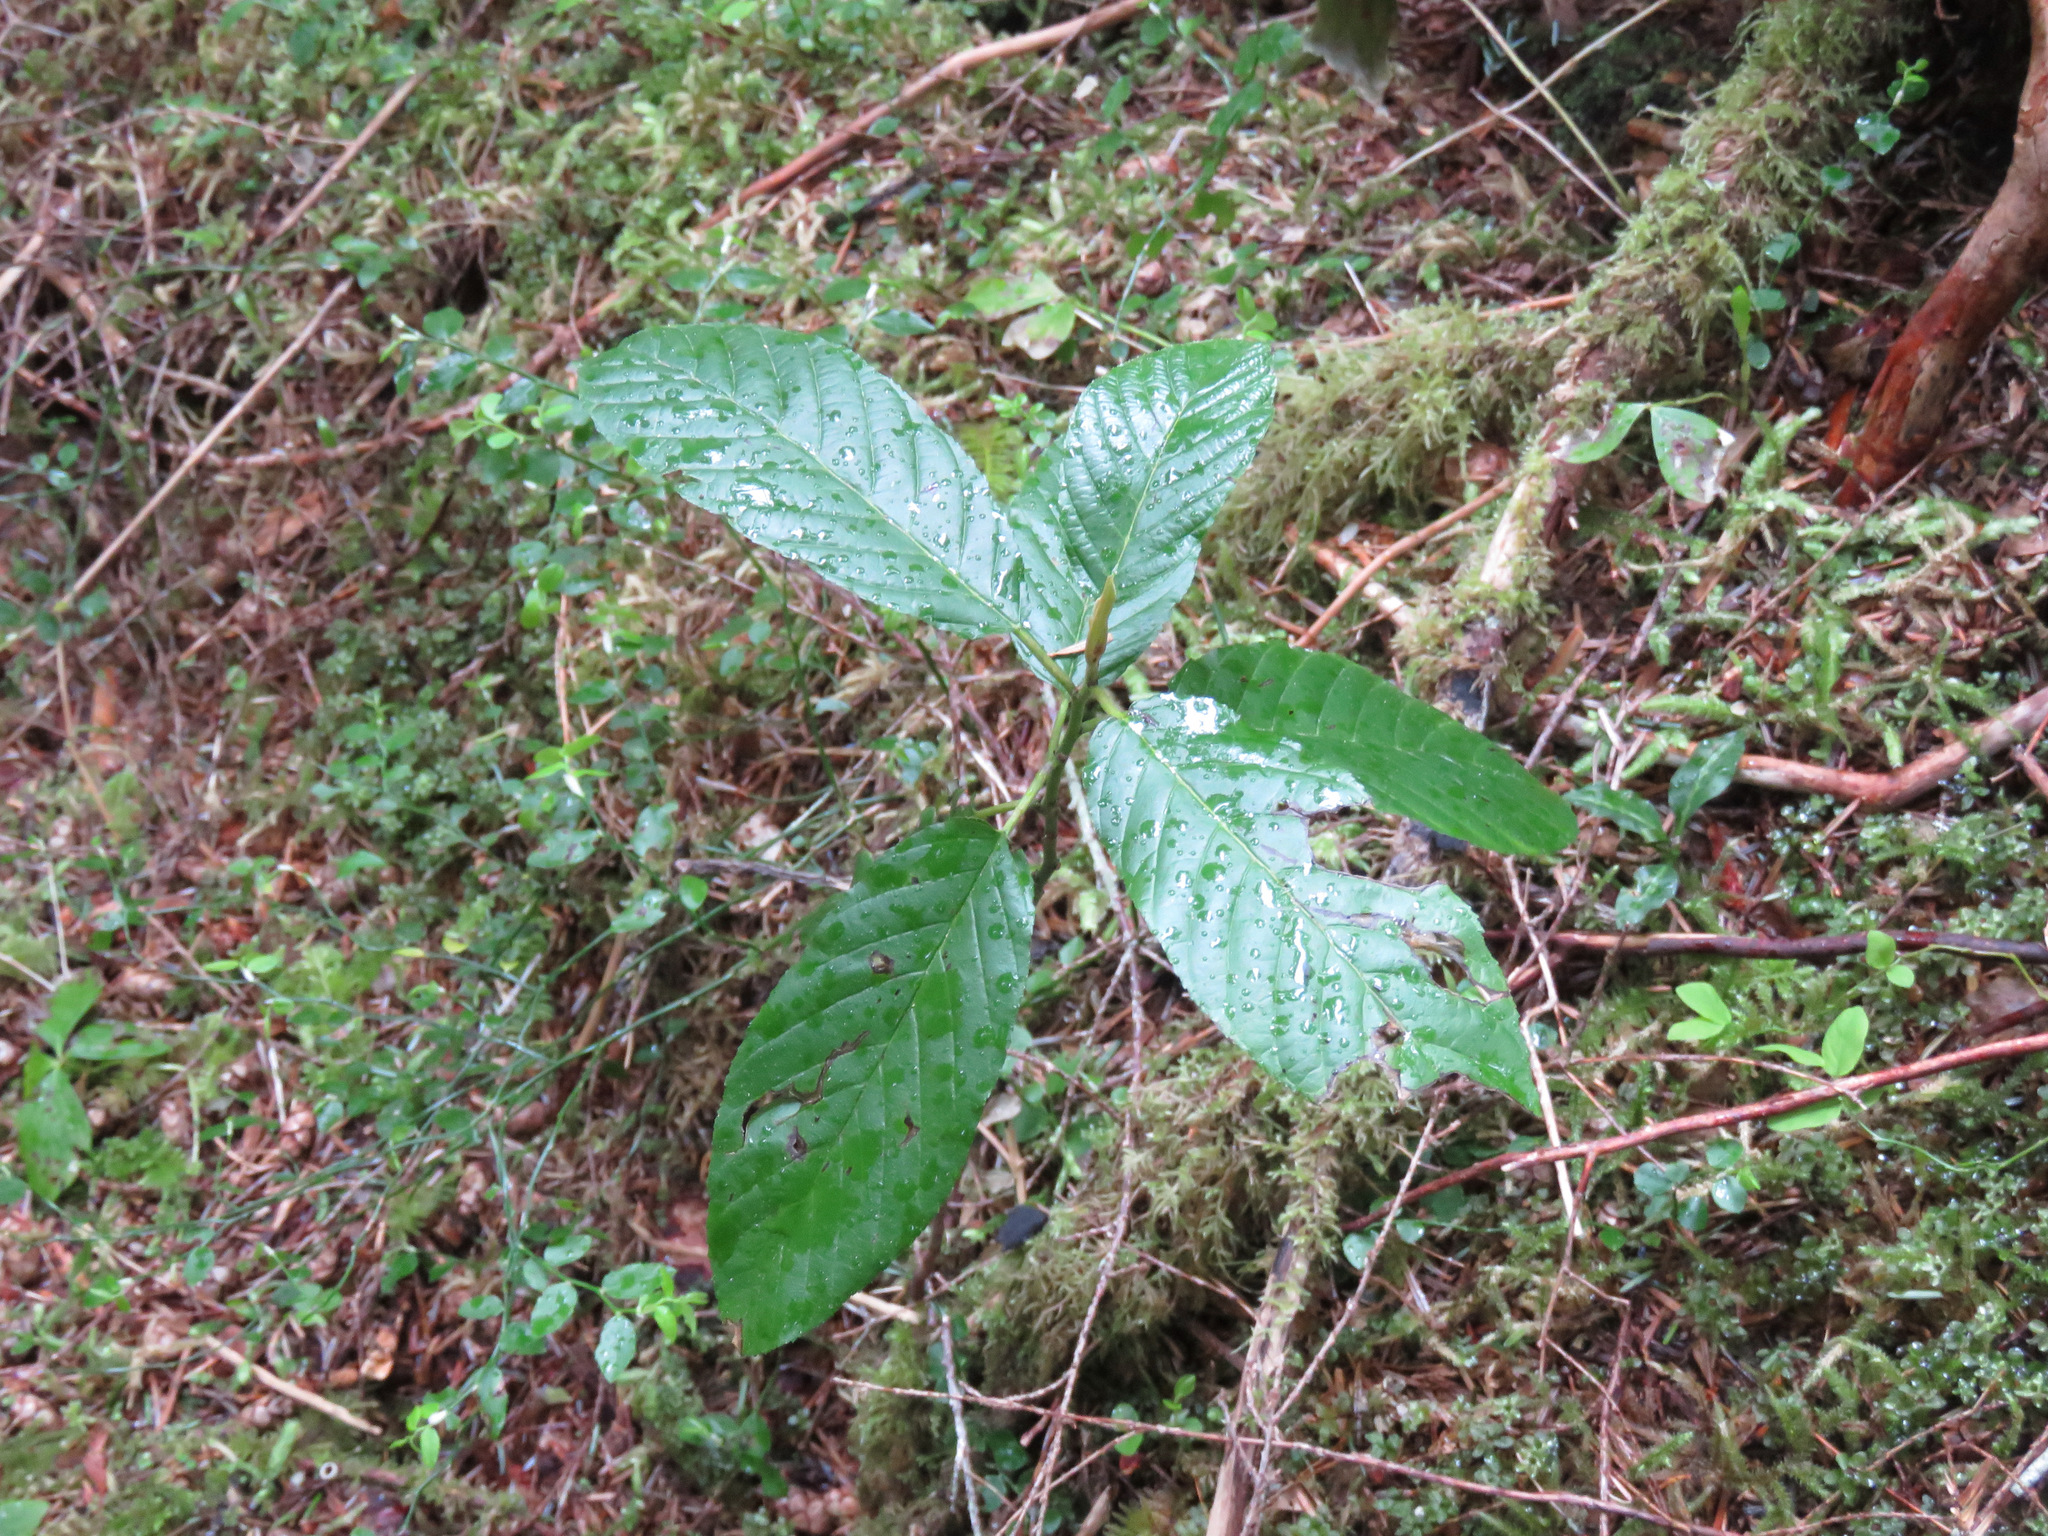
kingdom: Plantae
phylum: Tracheophyta
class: Magnoliopsida
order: Rosales
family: Rhamnaceae
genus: Frangula
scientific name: Frangula purshiana
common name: Cascara buckthorn
